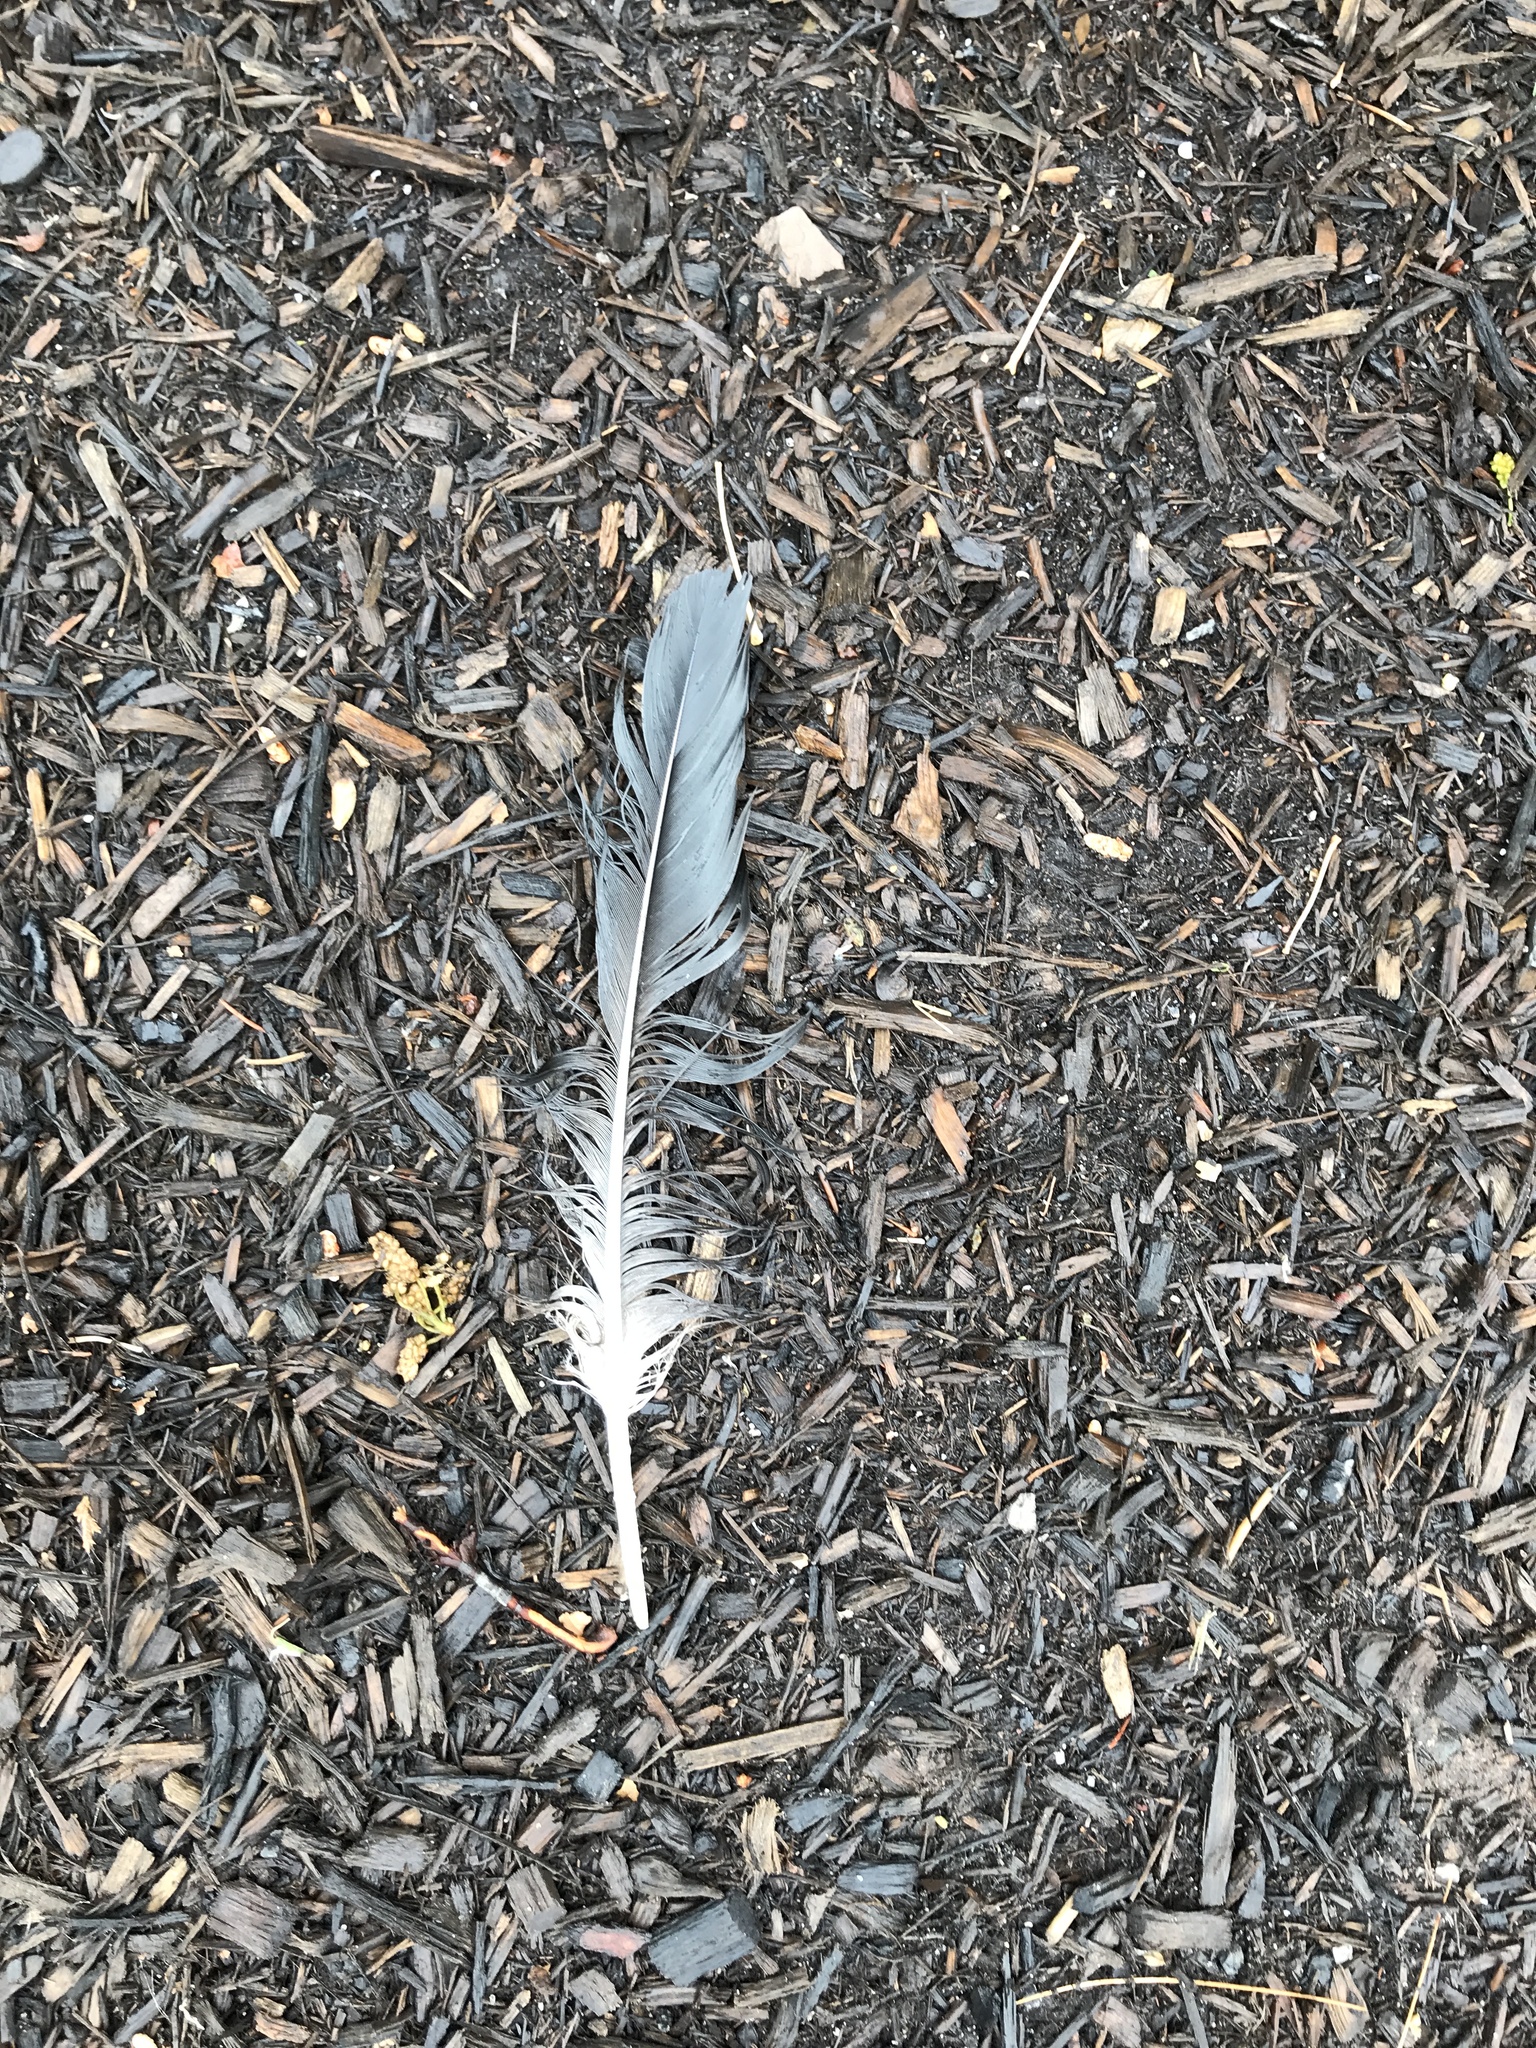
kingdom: Animalia
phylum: Chordata
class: Aves
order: Accipitriformes
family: Cathartidae
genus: Coragyps
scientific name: Coragyps atratus
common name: Black vulture
